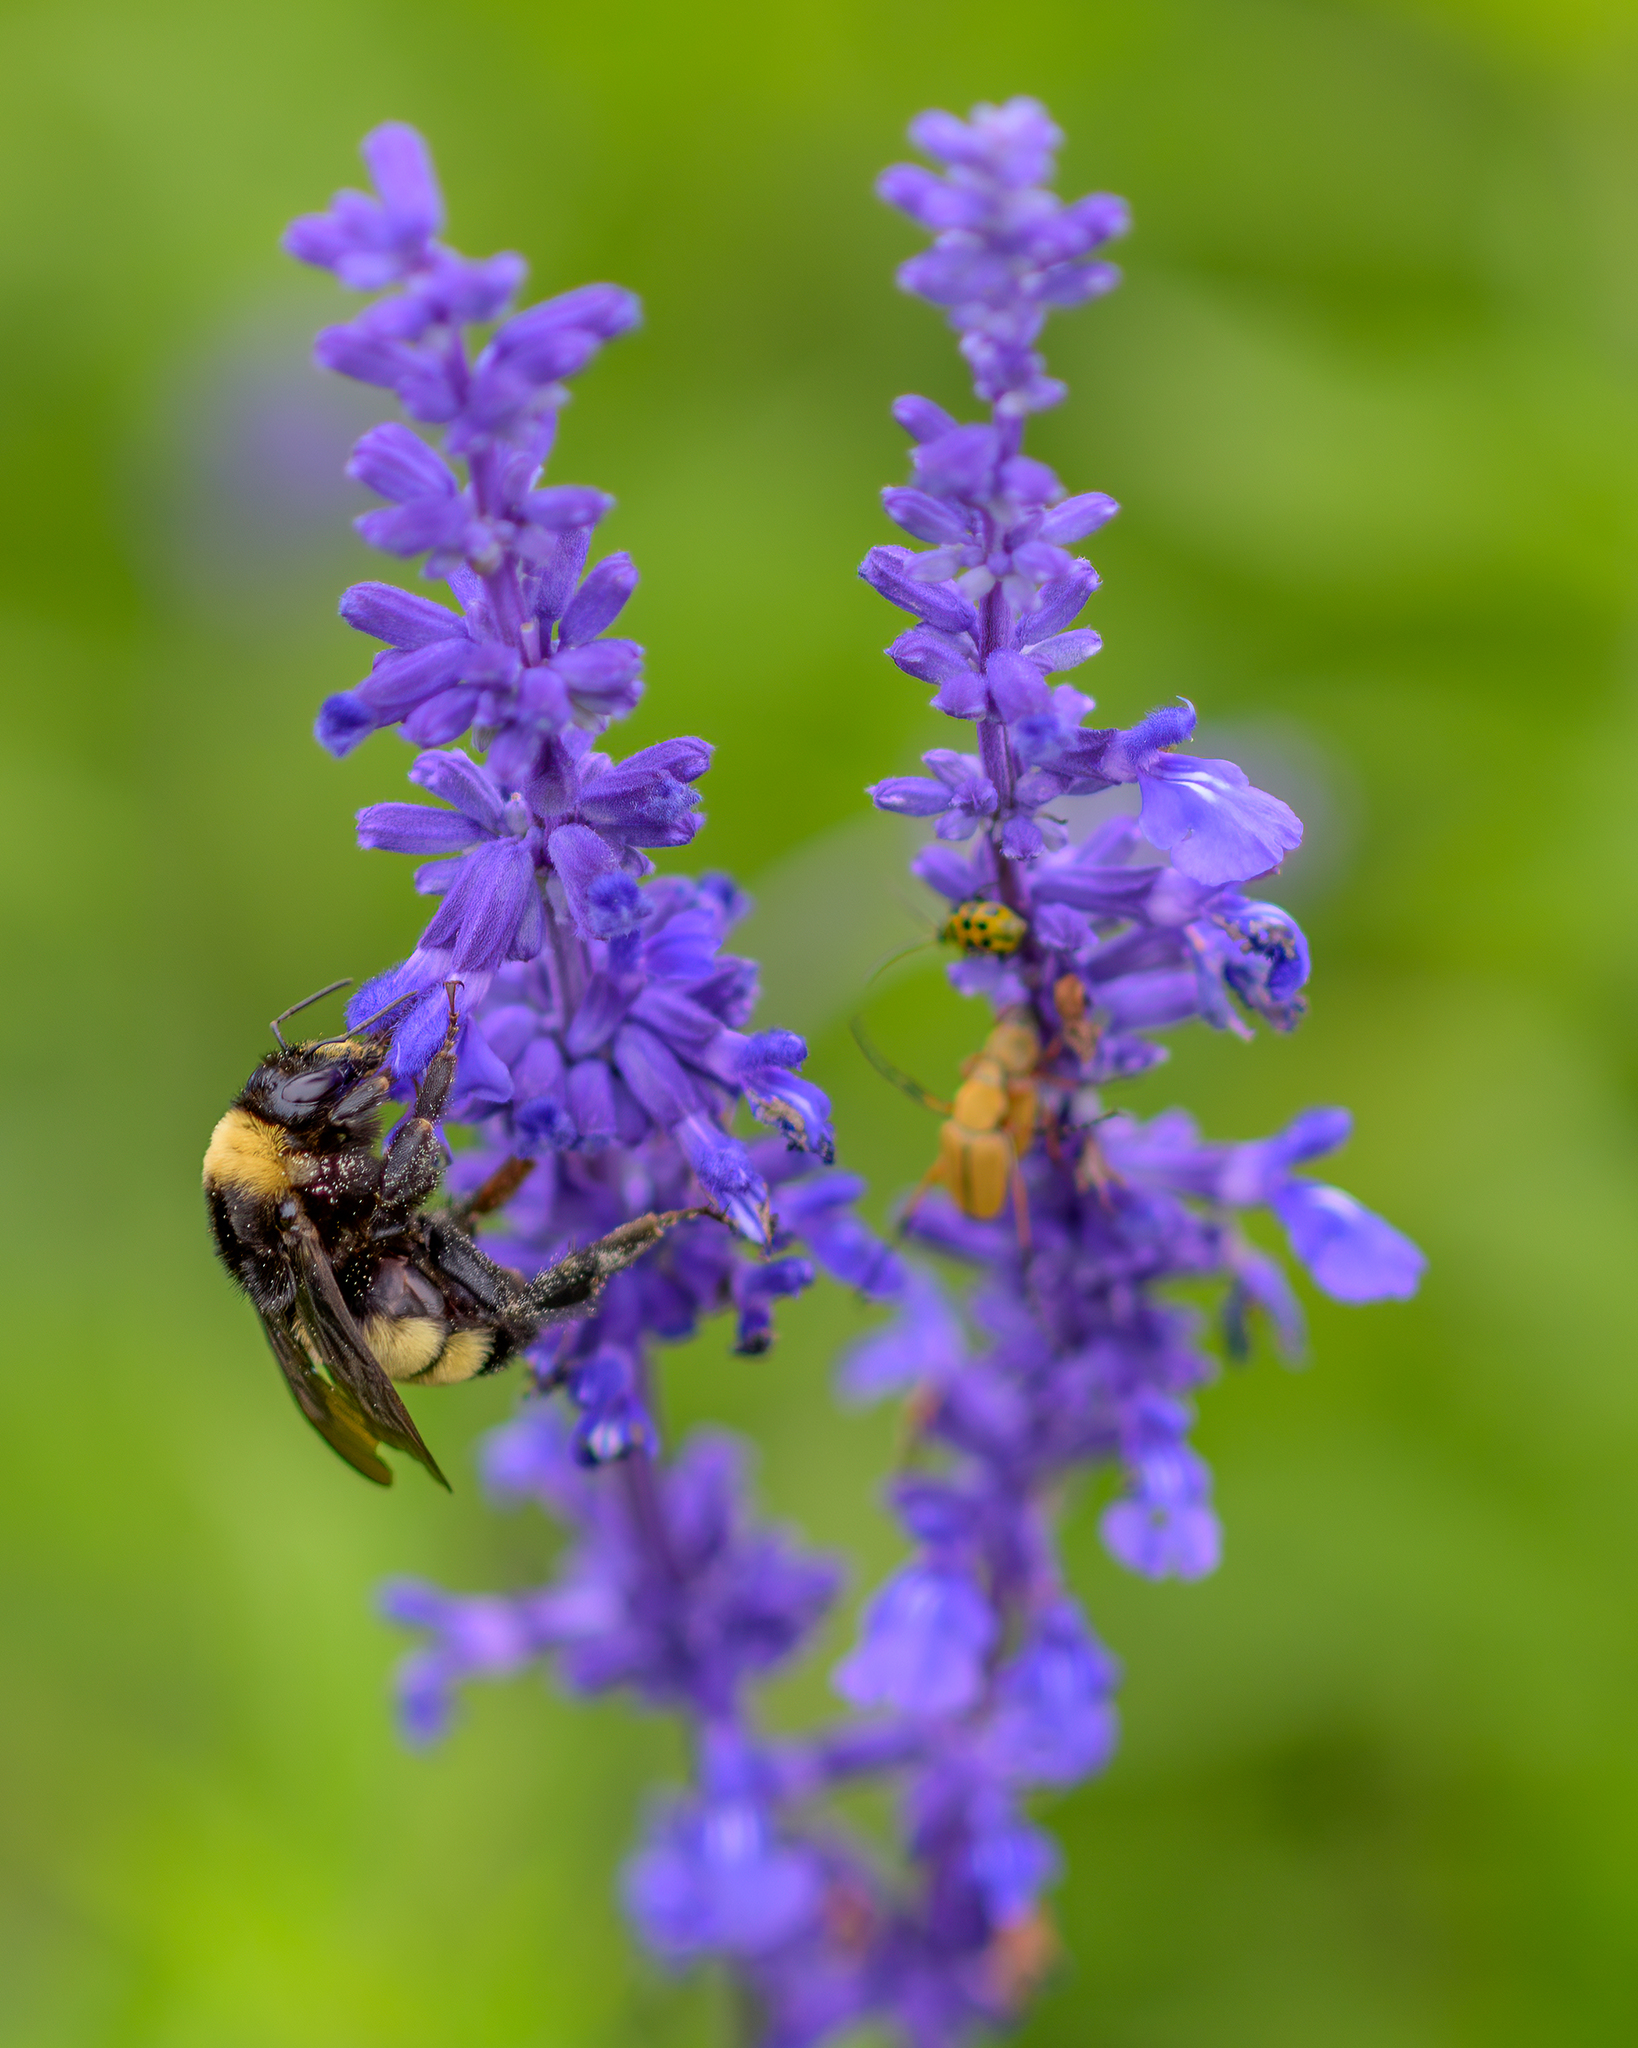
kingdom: Animalia
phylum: Arthropoda
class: Insecta
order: Hymenoptera
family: Apidae
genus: Bombus
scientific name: Bombus pensylvanicus
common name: Bumble bee
